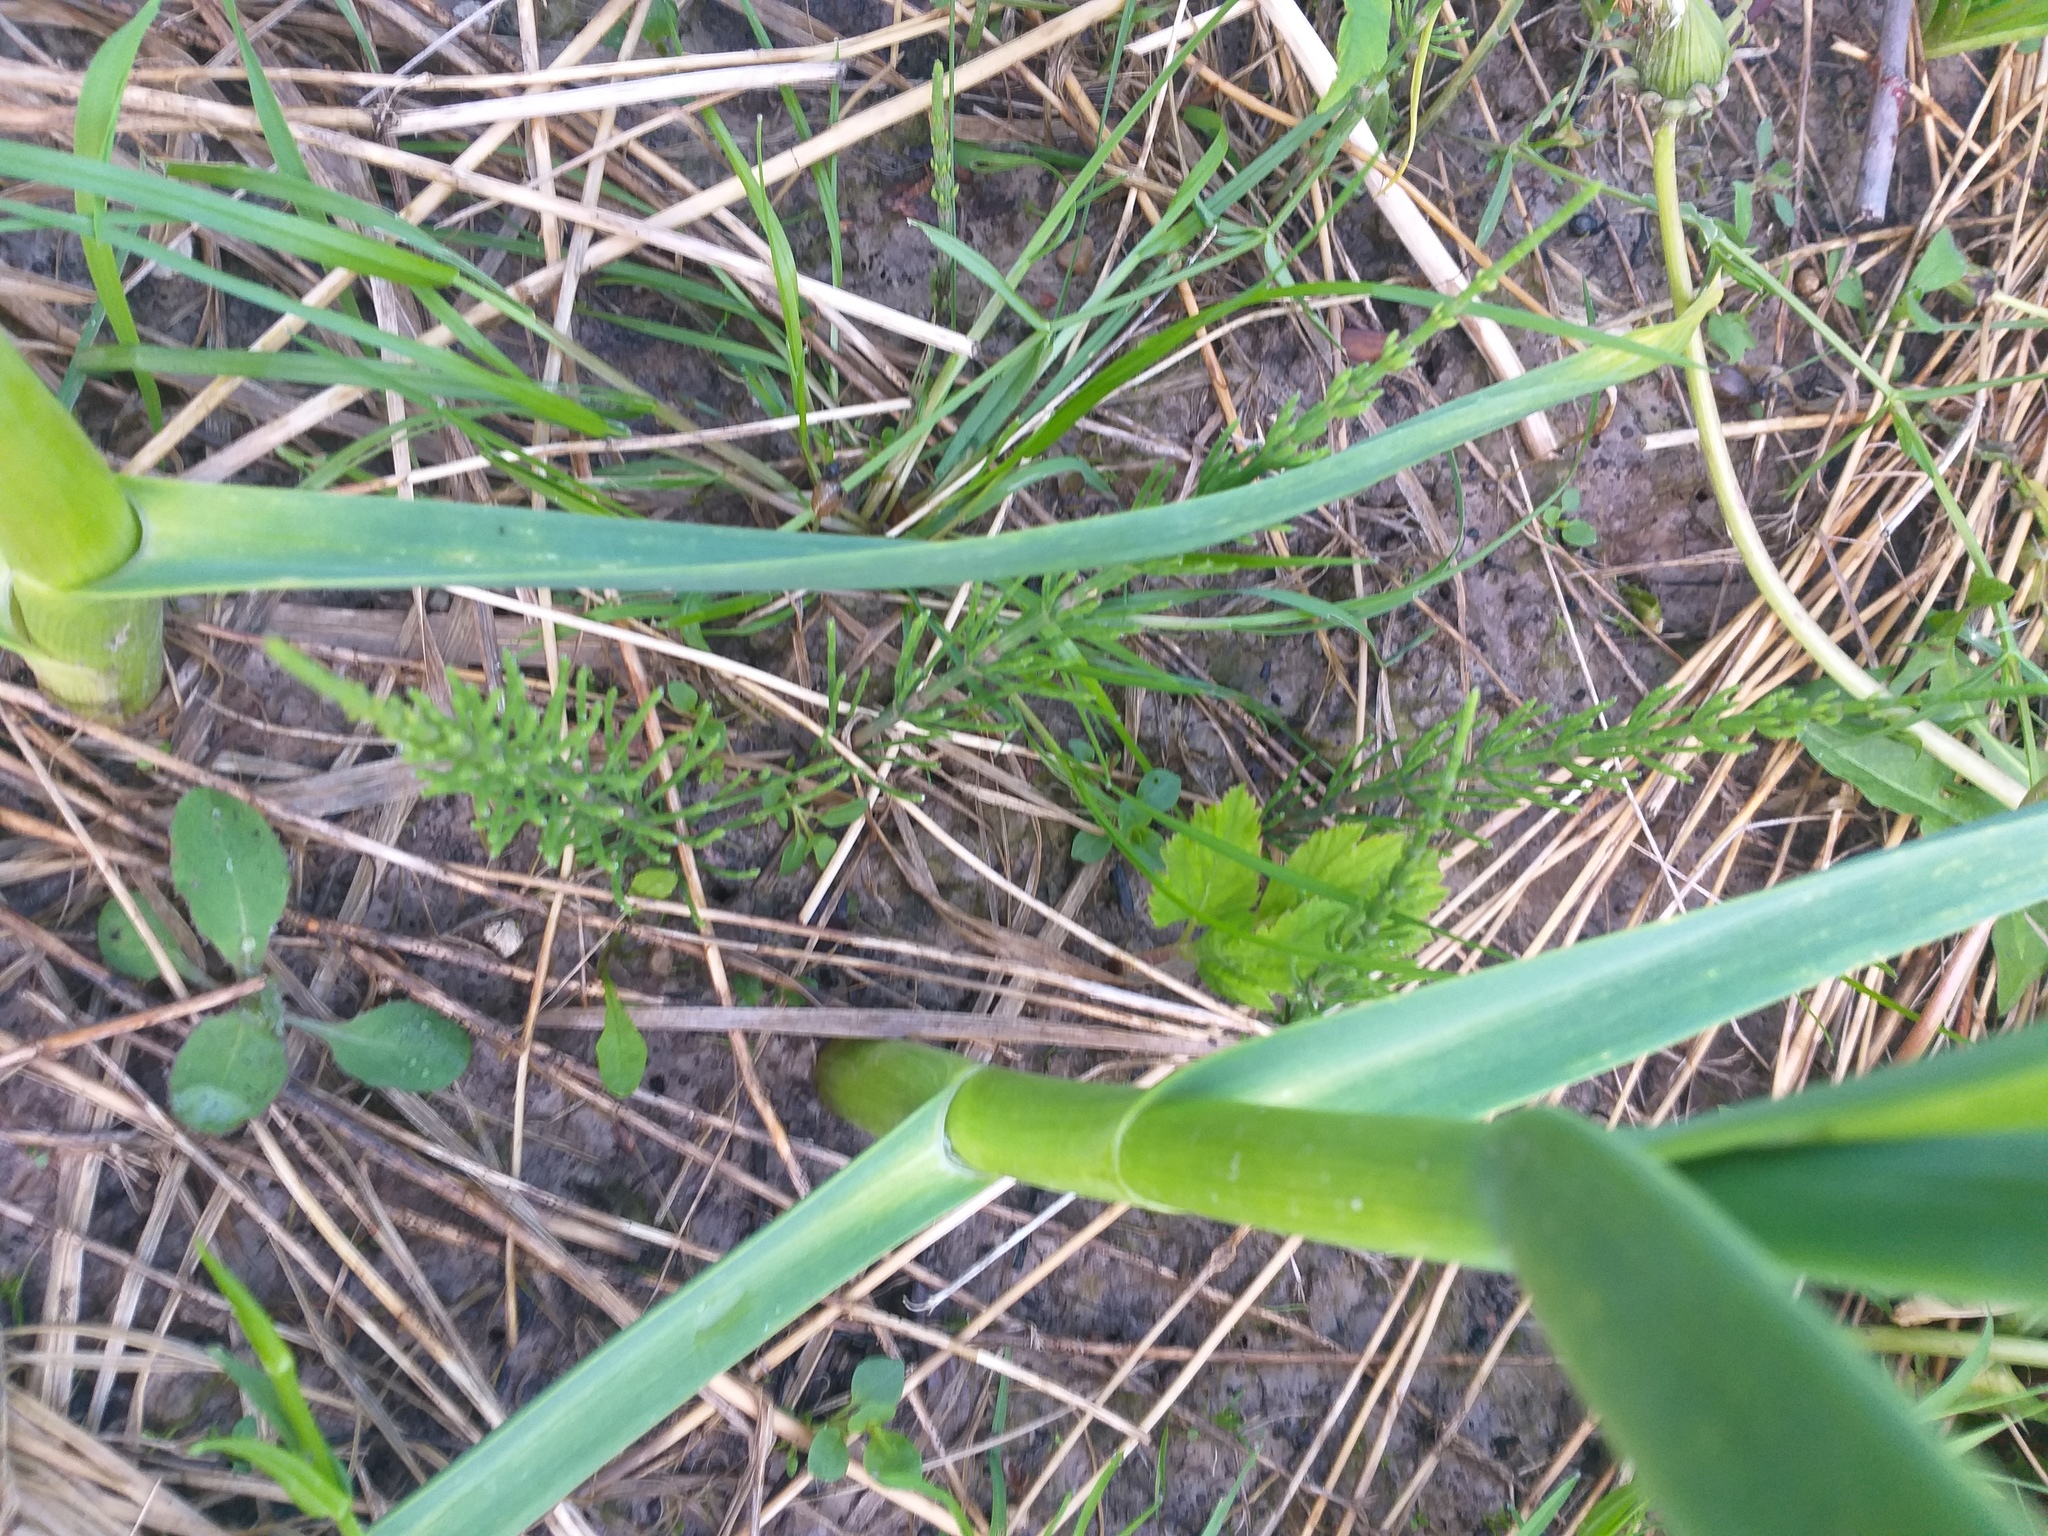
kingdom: Plantae
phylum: Tracheophyta
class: Polypodiopsida
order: Equisetales
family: Equisetaceae
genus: Equisetum
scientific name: Equisetum arvense
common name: Field horsetail
